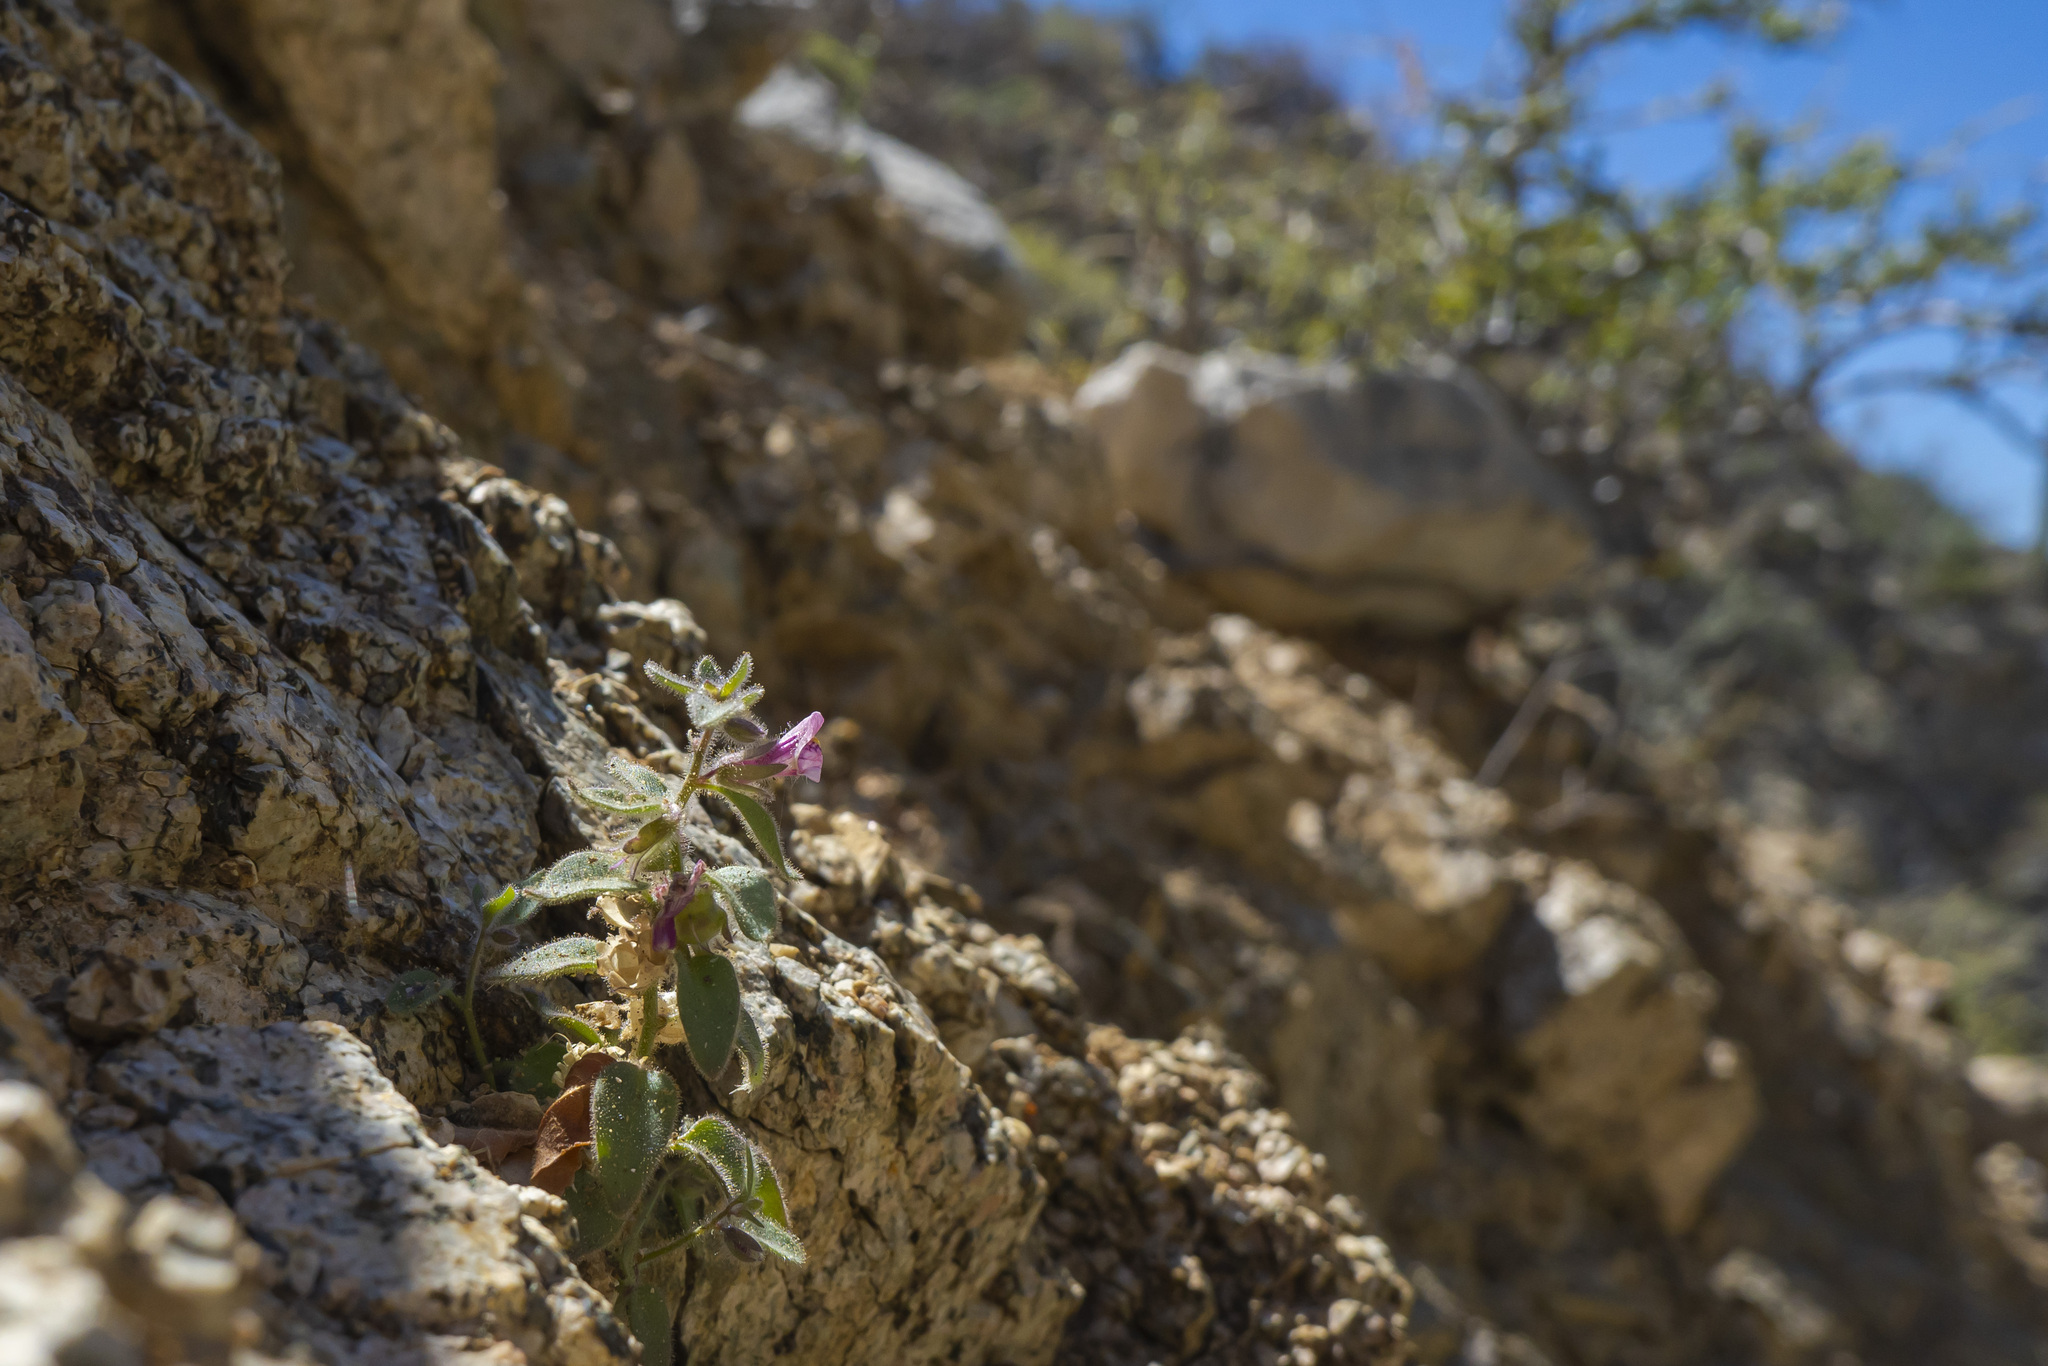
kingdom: Plantae
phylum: Tracheophyta
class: Magnoliopsida
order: Lamiales
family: Plantaginaceae
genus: Pseudorontium
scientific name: Pseudorontium cyathiferum
